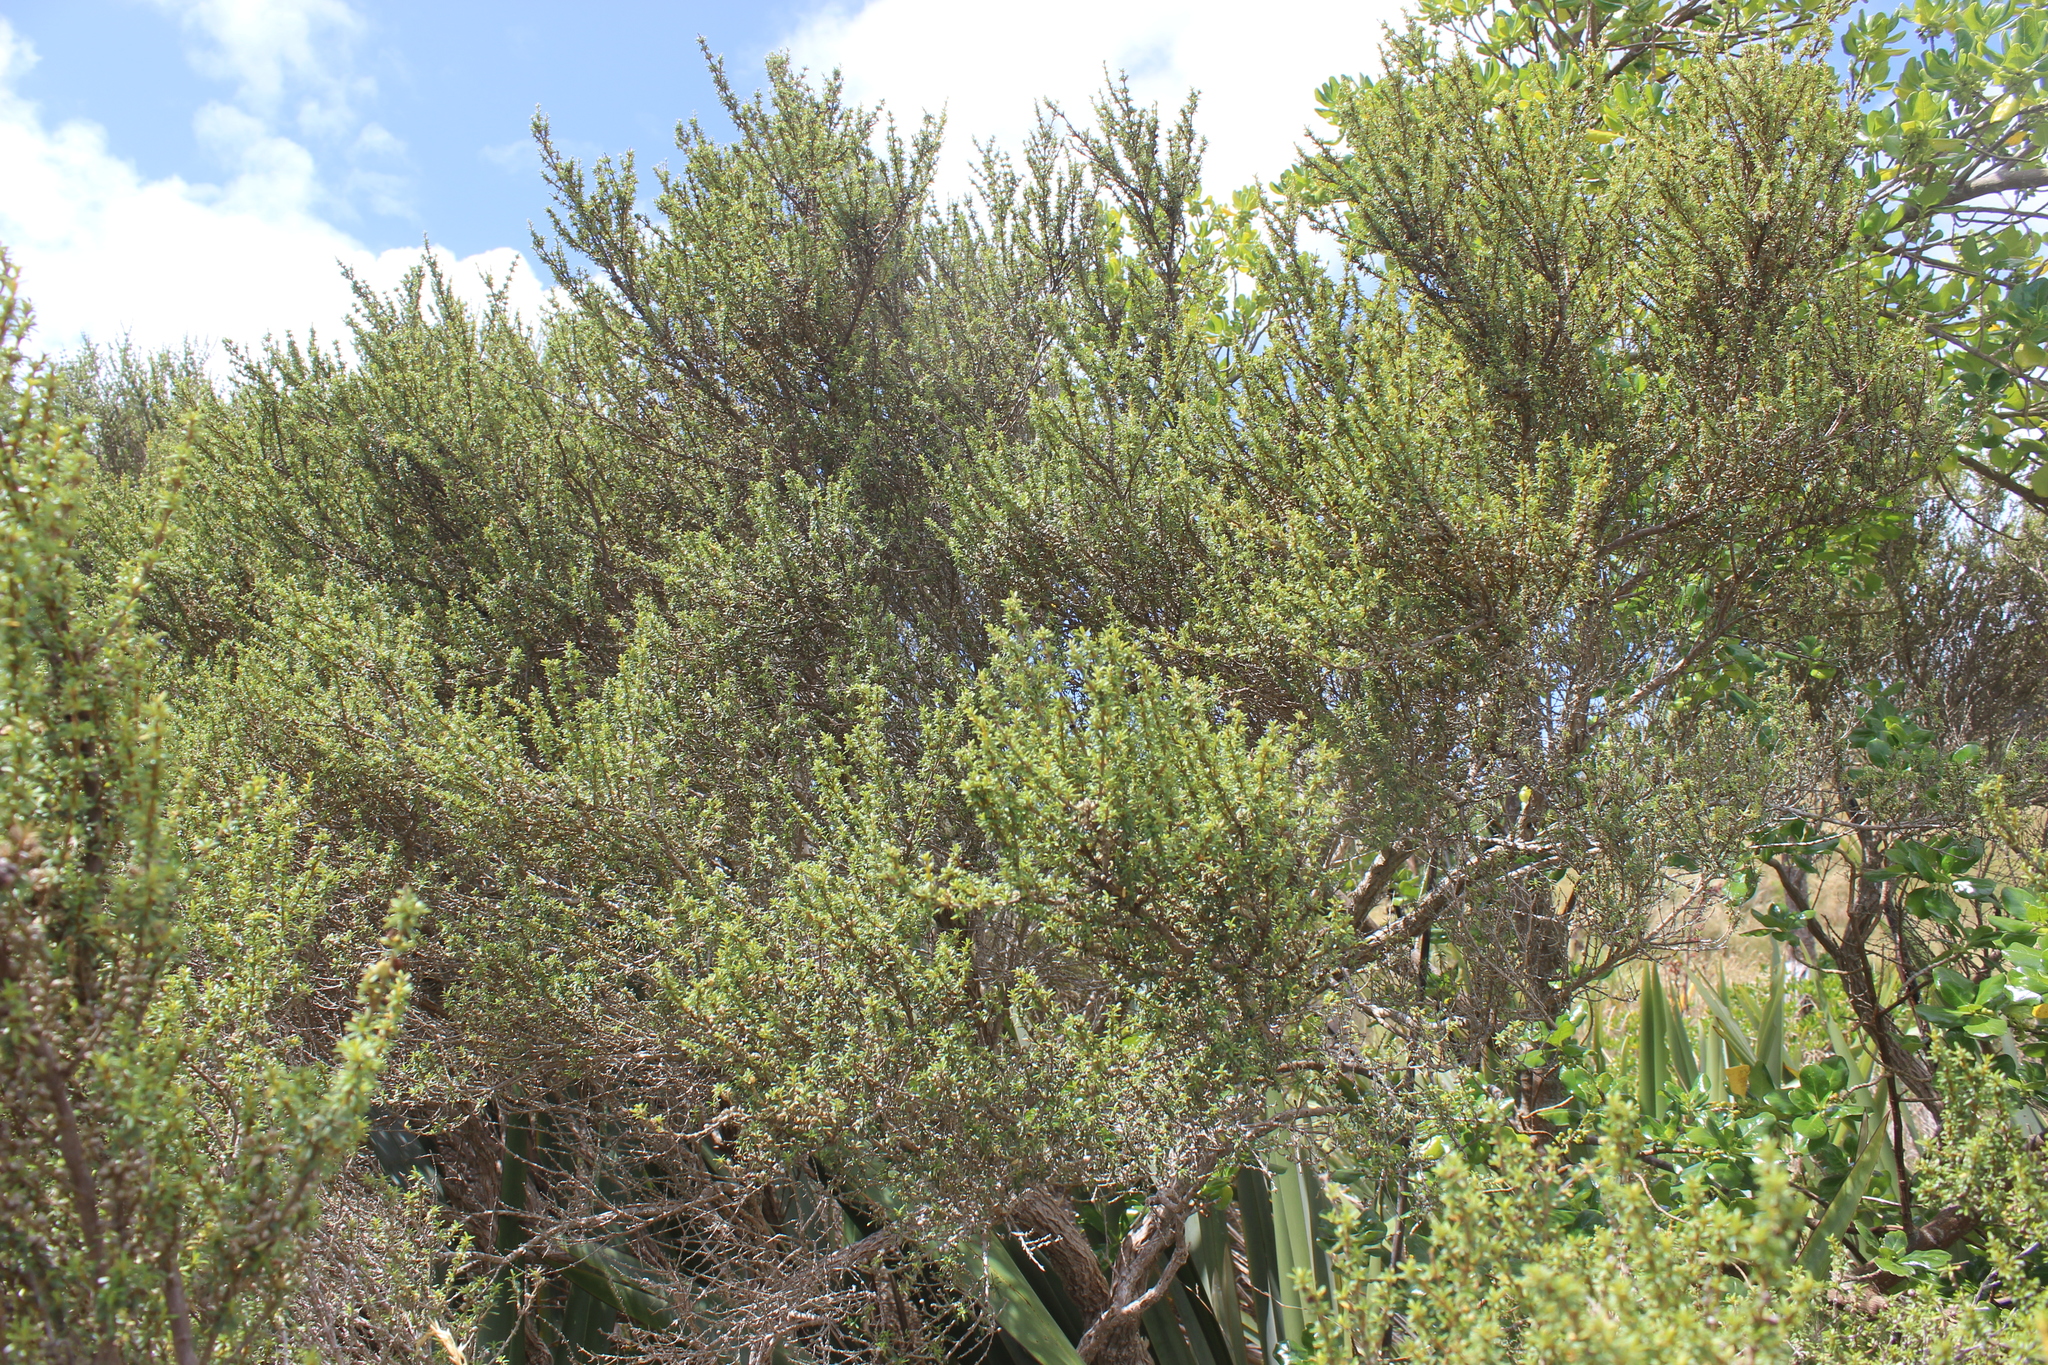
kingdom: Plantae
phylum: Tracheophyta
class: Magnoliopsida
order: Asterales
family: Asteraceae
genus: Olearia
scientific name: Olearia solandri
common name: Coastal daisybush
